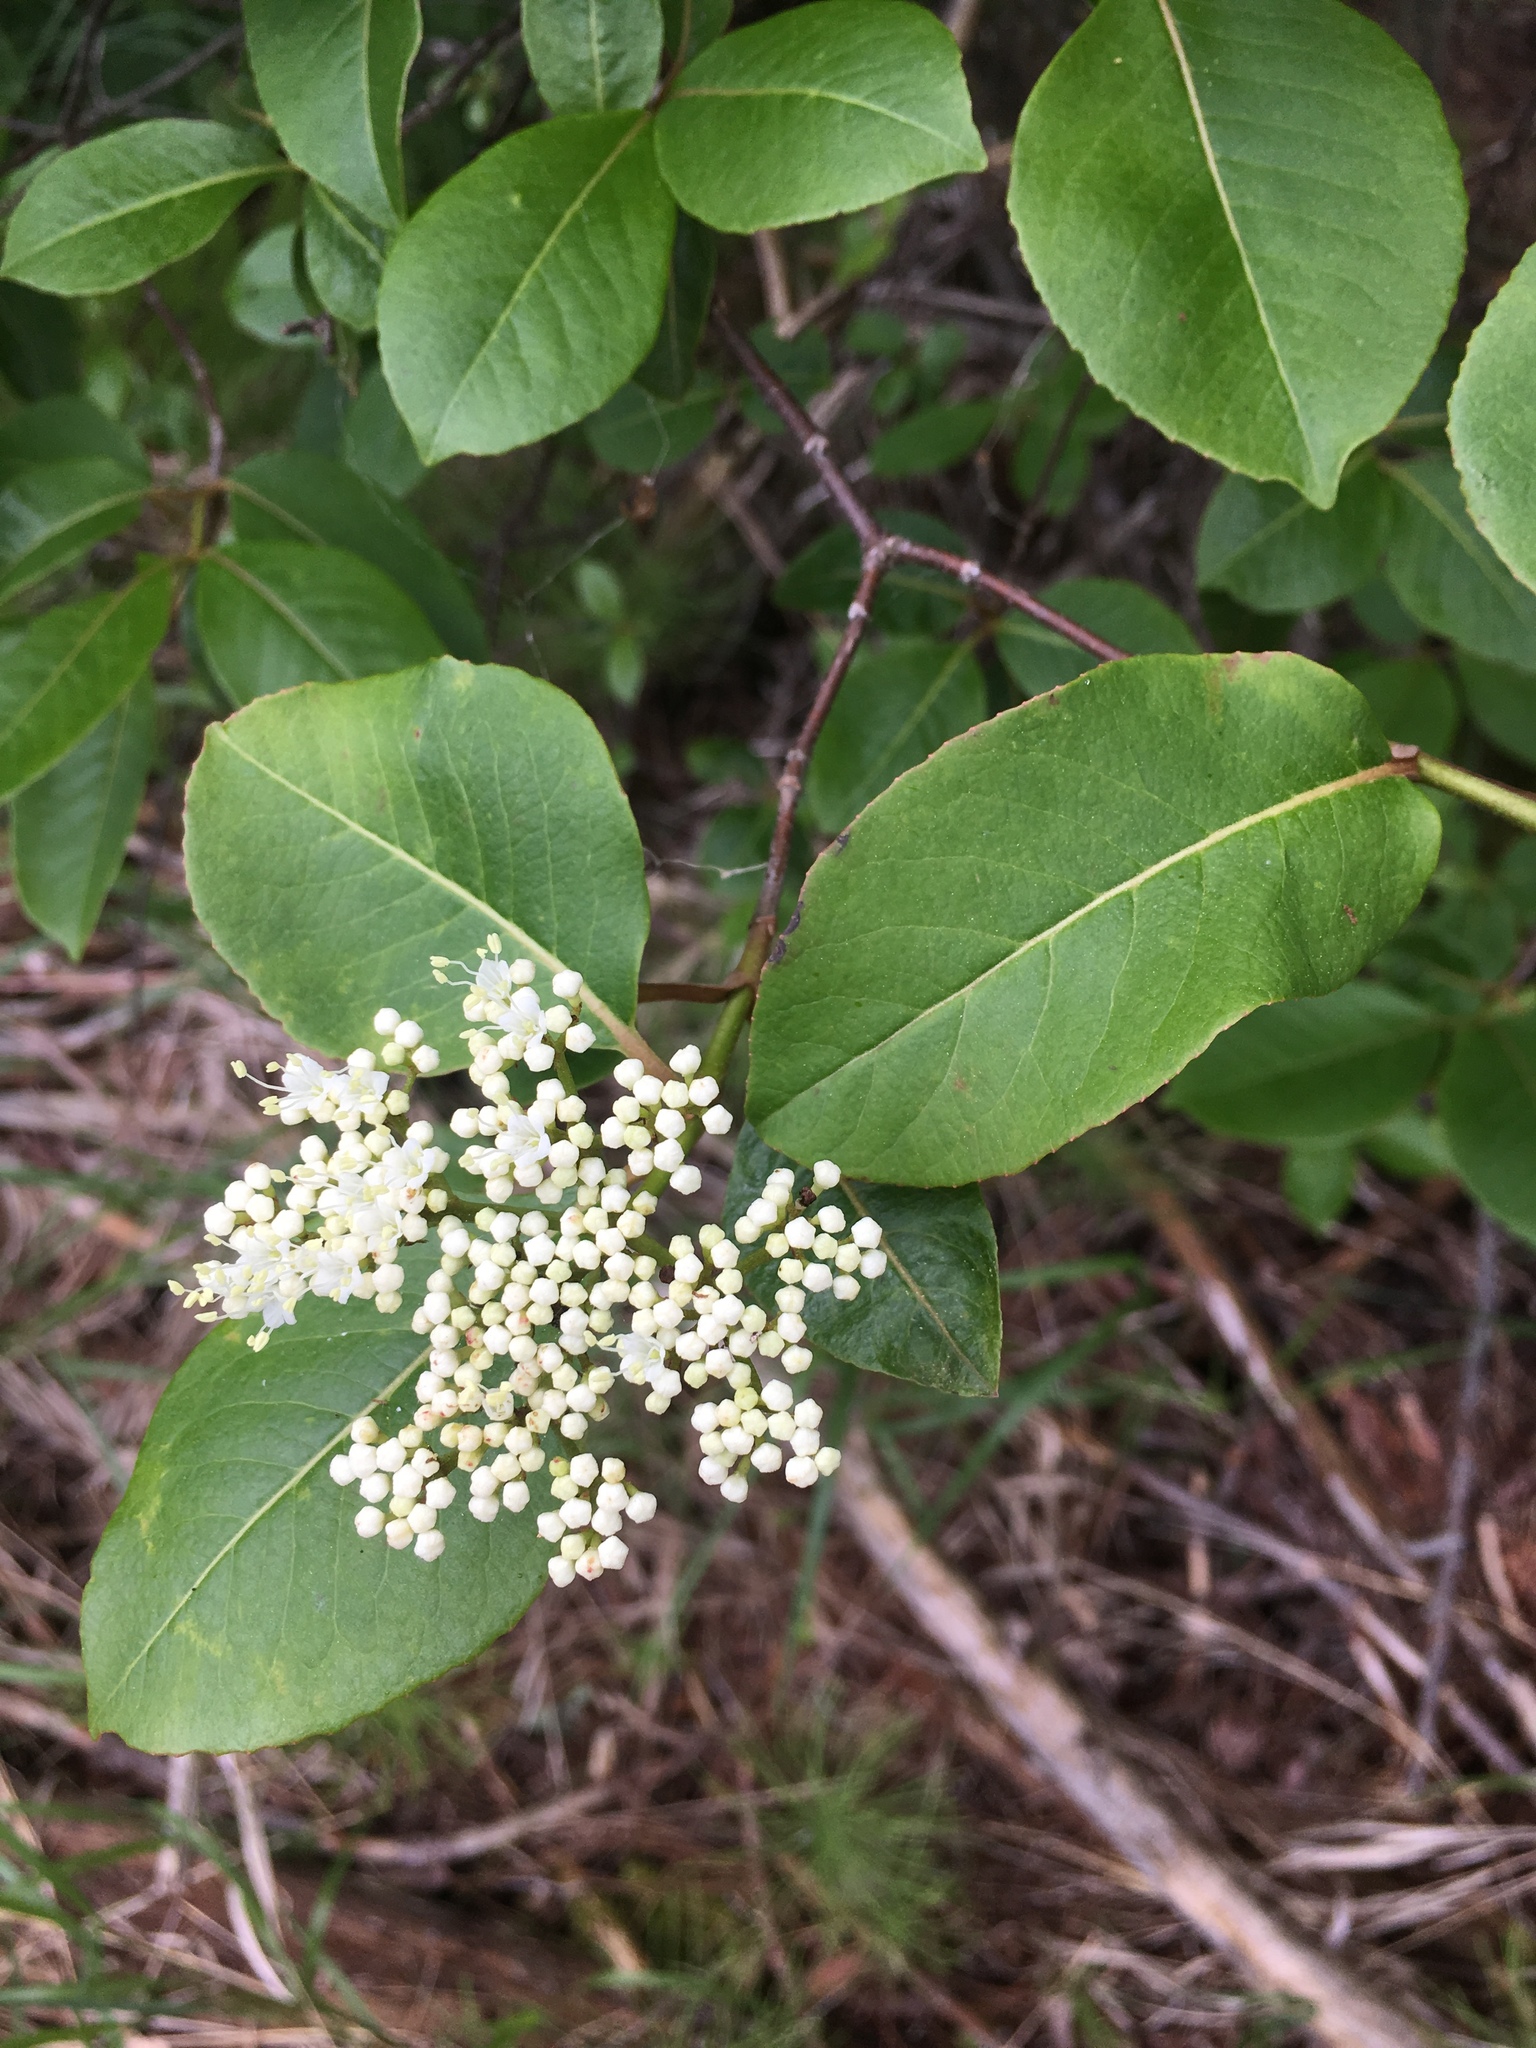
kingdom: Plantae
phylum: Tracheophyta
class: Magnoliopsida
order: Dipsacales
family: Viburnaceae
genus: Viburnum
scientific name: Viburnum cassinoides
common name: Swamp haw
